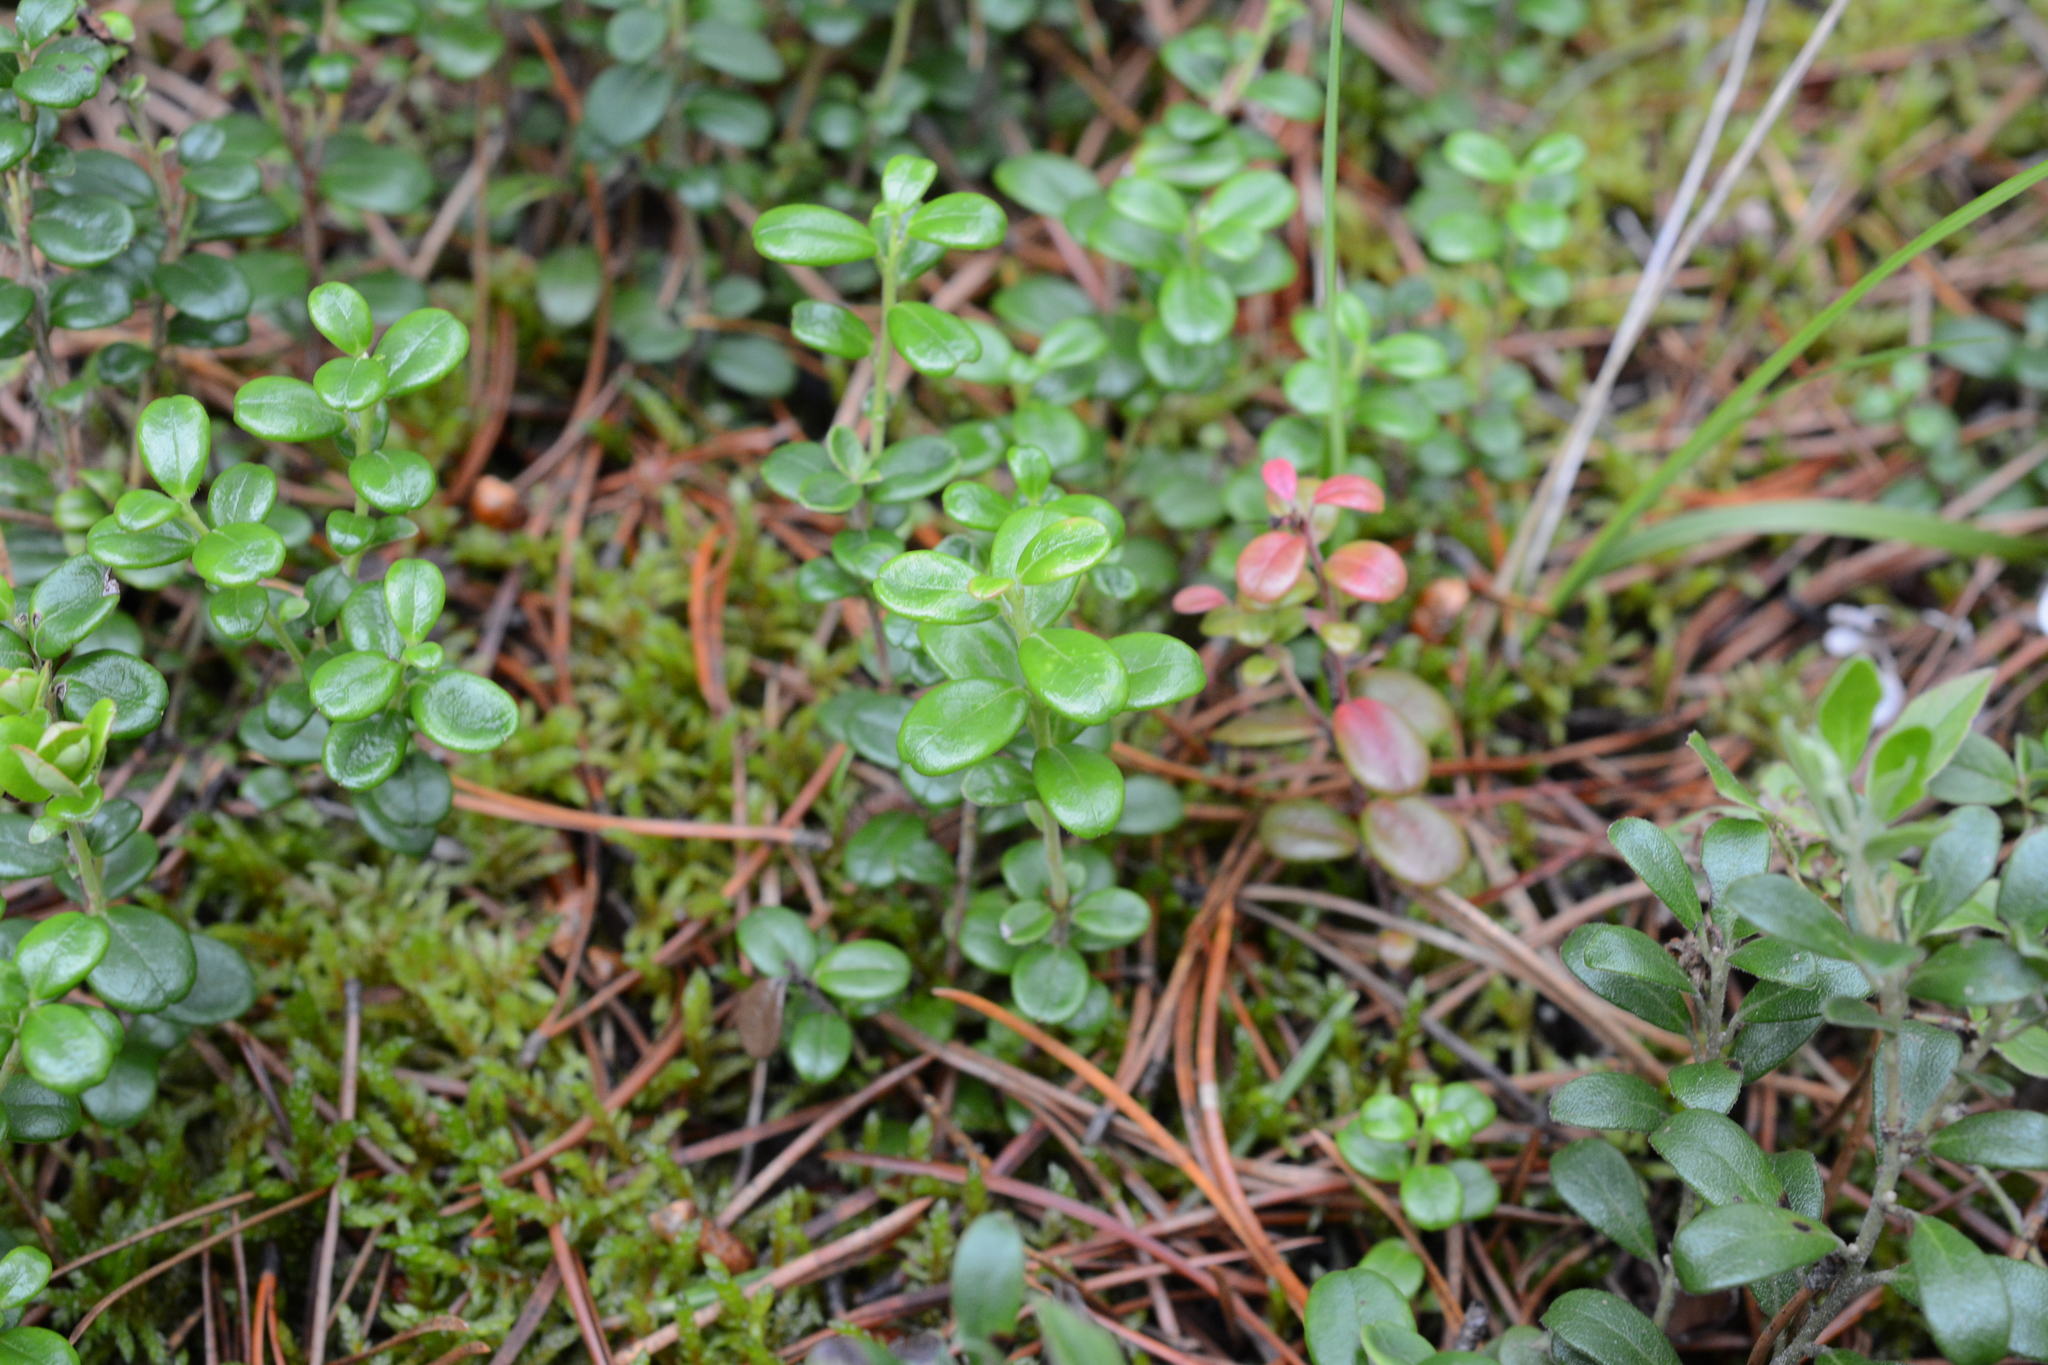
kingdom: Plantae
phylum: Tracheophyta
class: Magnoliopsida
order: Ericales
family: Ericaceae
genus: Vaccinium
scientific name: Vaccinium vitis-idaea
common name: Cowberry
